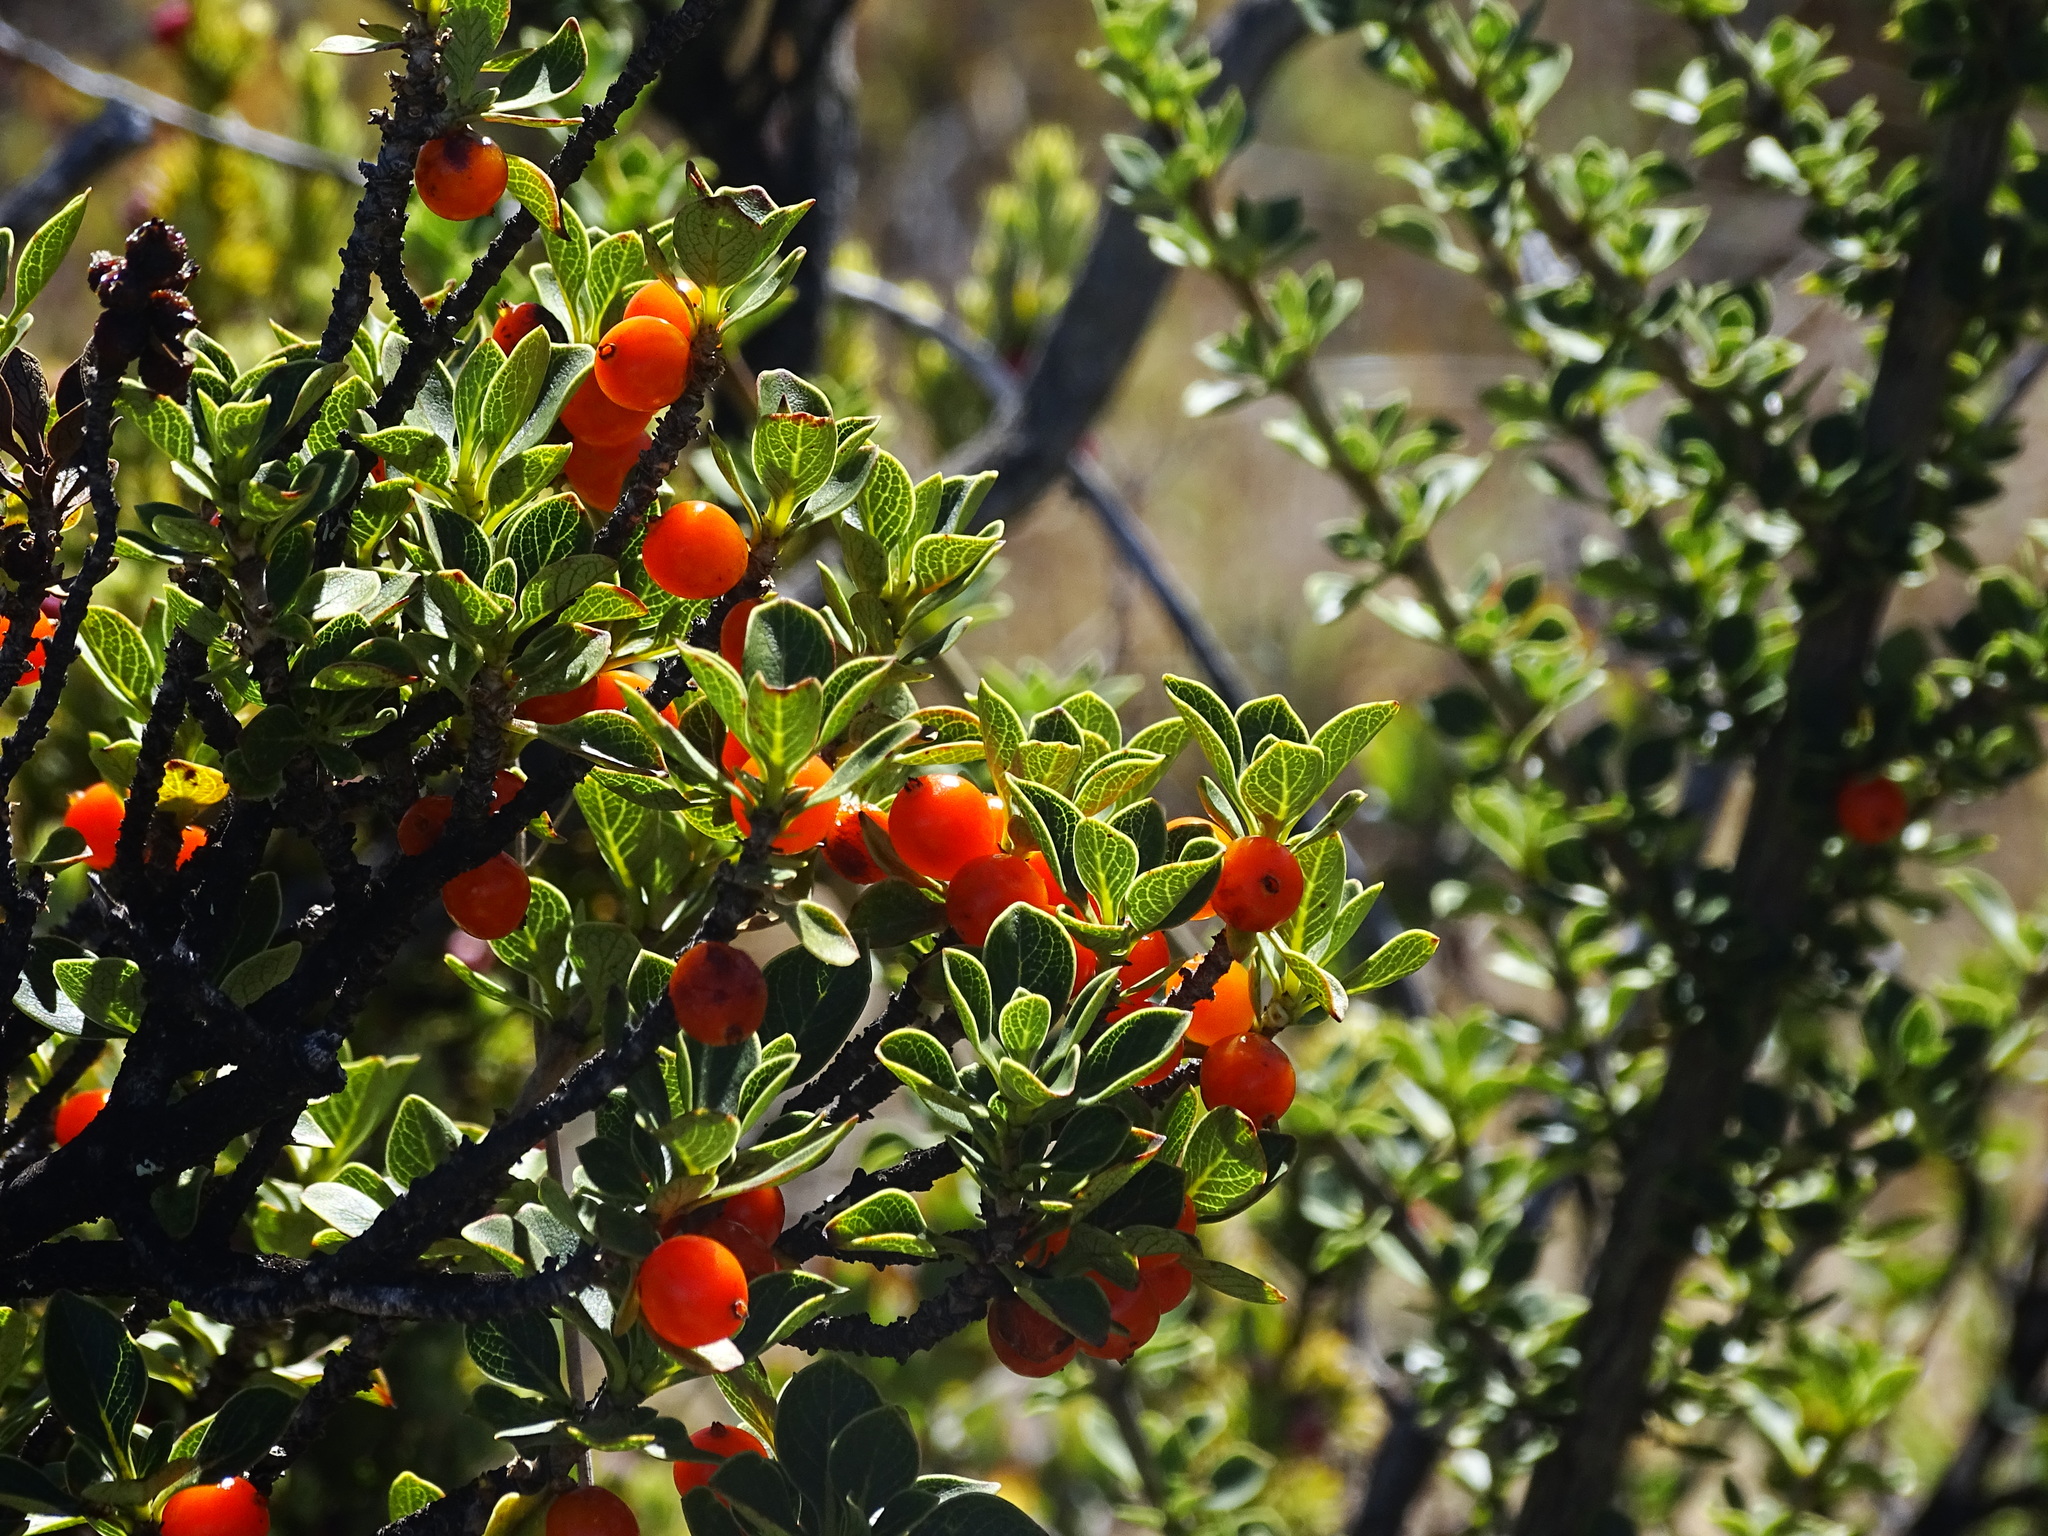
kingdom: Plantae
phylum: Tracheophyta
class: Magnoliopsida
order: Gentianales
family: Rubiaceae
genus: Coprosma
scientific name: Coprosma montana
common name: Alpine mirror plant
